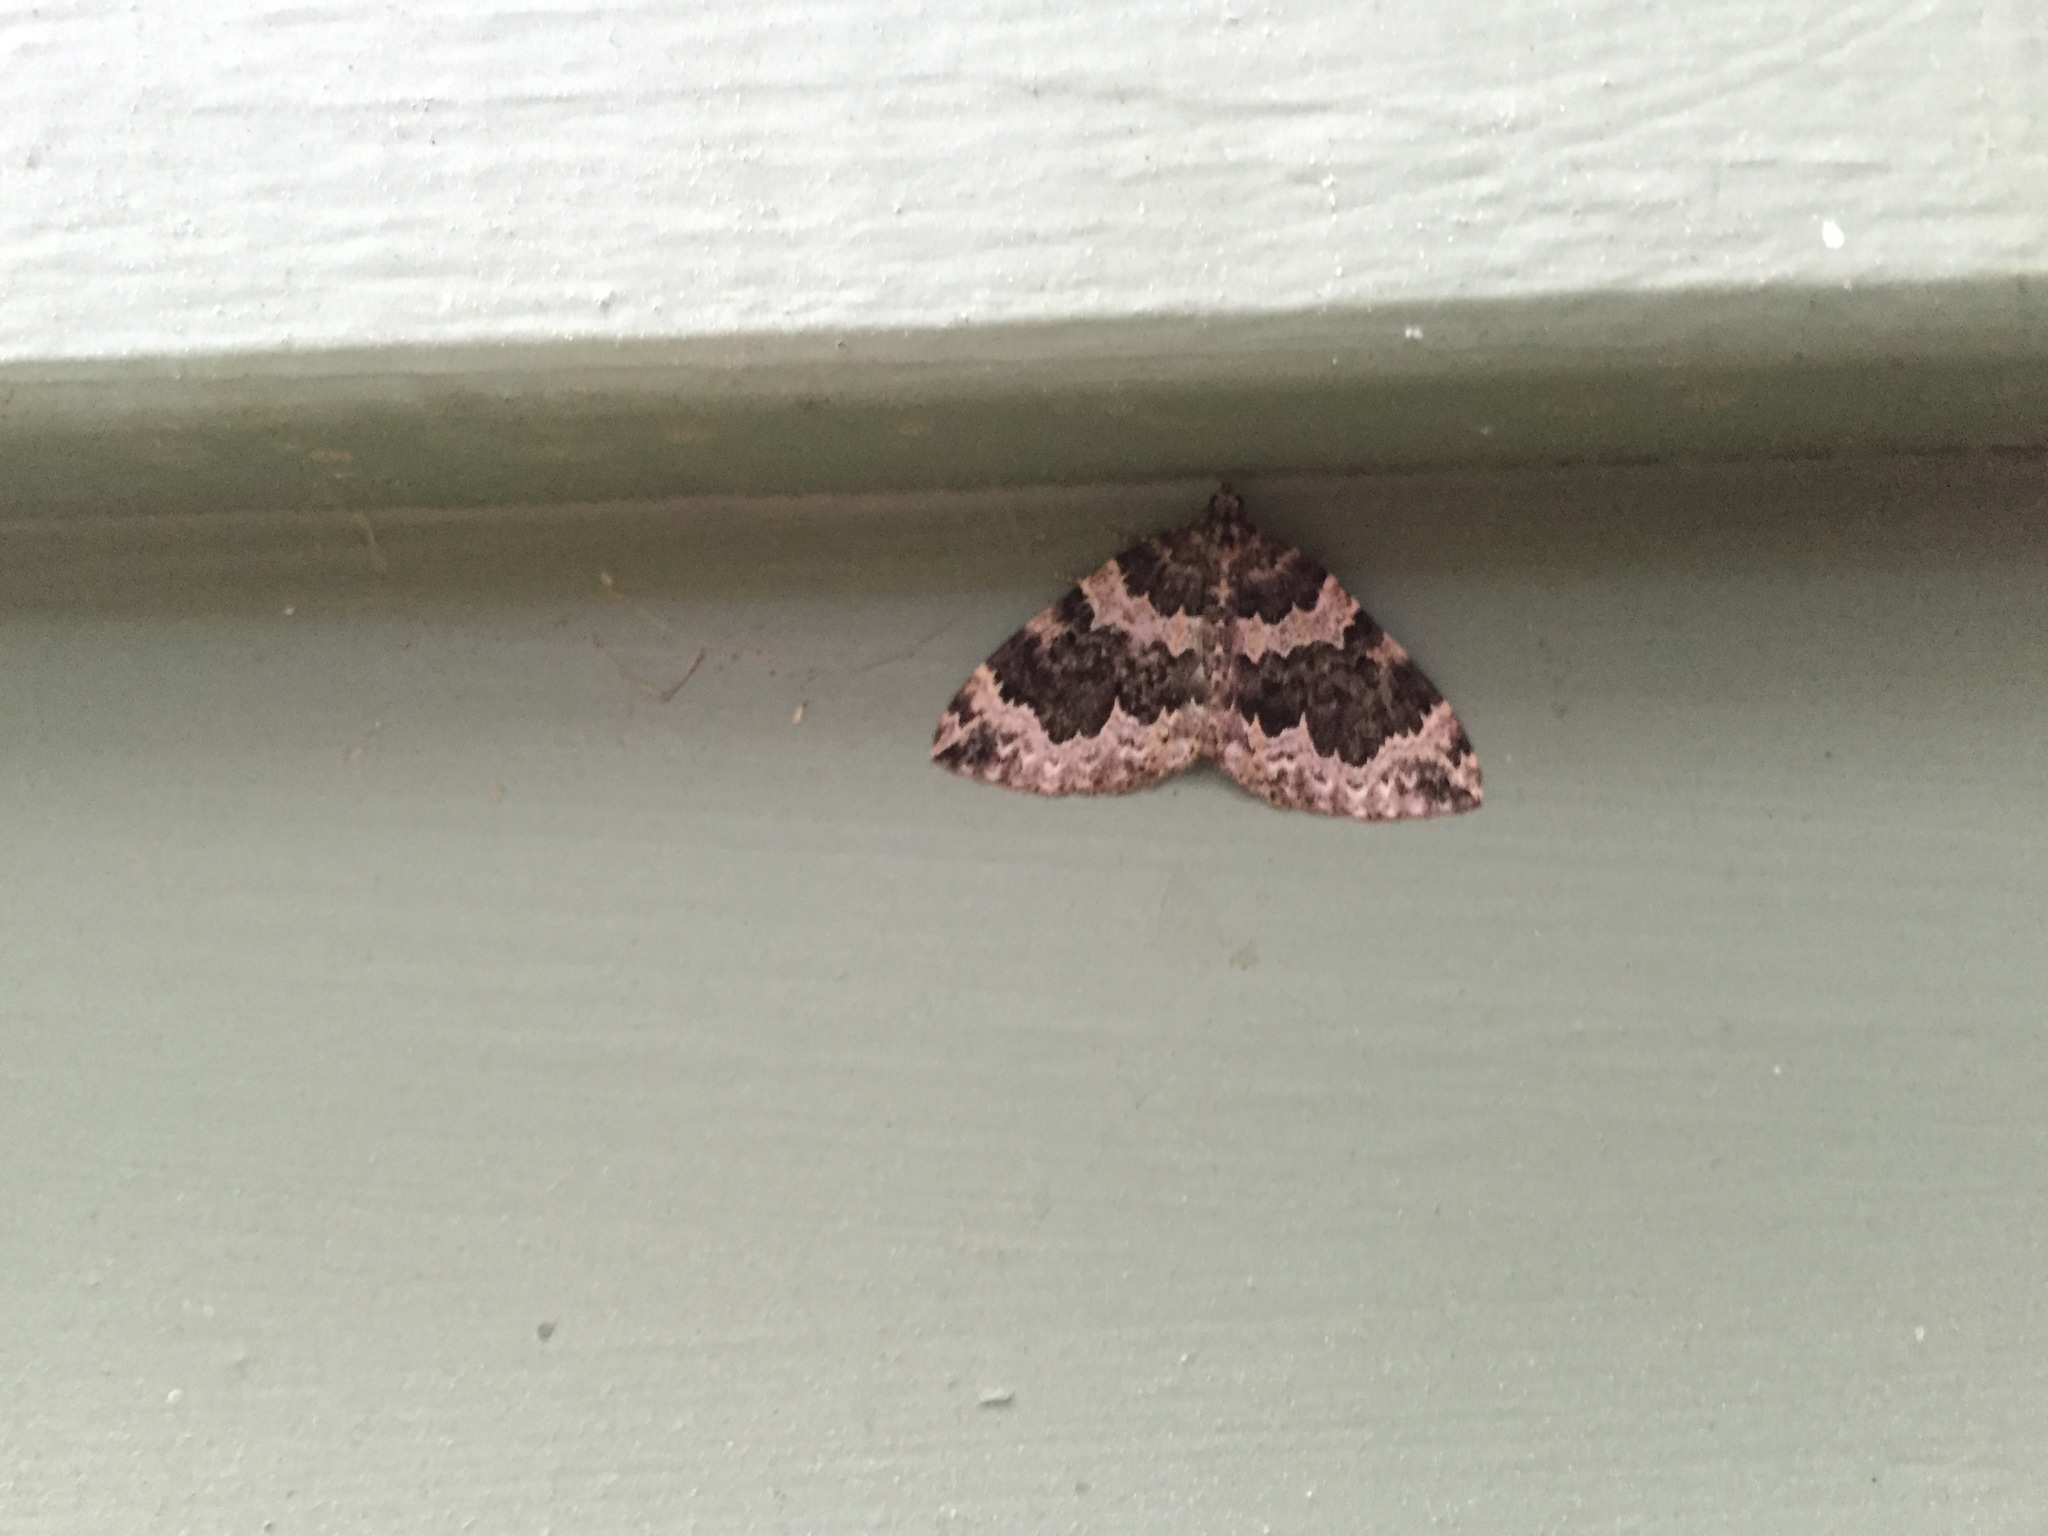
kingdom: Animalia
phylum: Arthropoda
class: Insecta
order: Lepidoptera
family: Geometridae
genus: Eustroma
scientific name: Eustroma semiatrata
